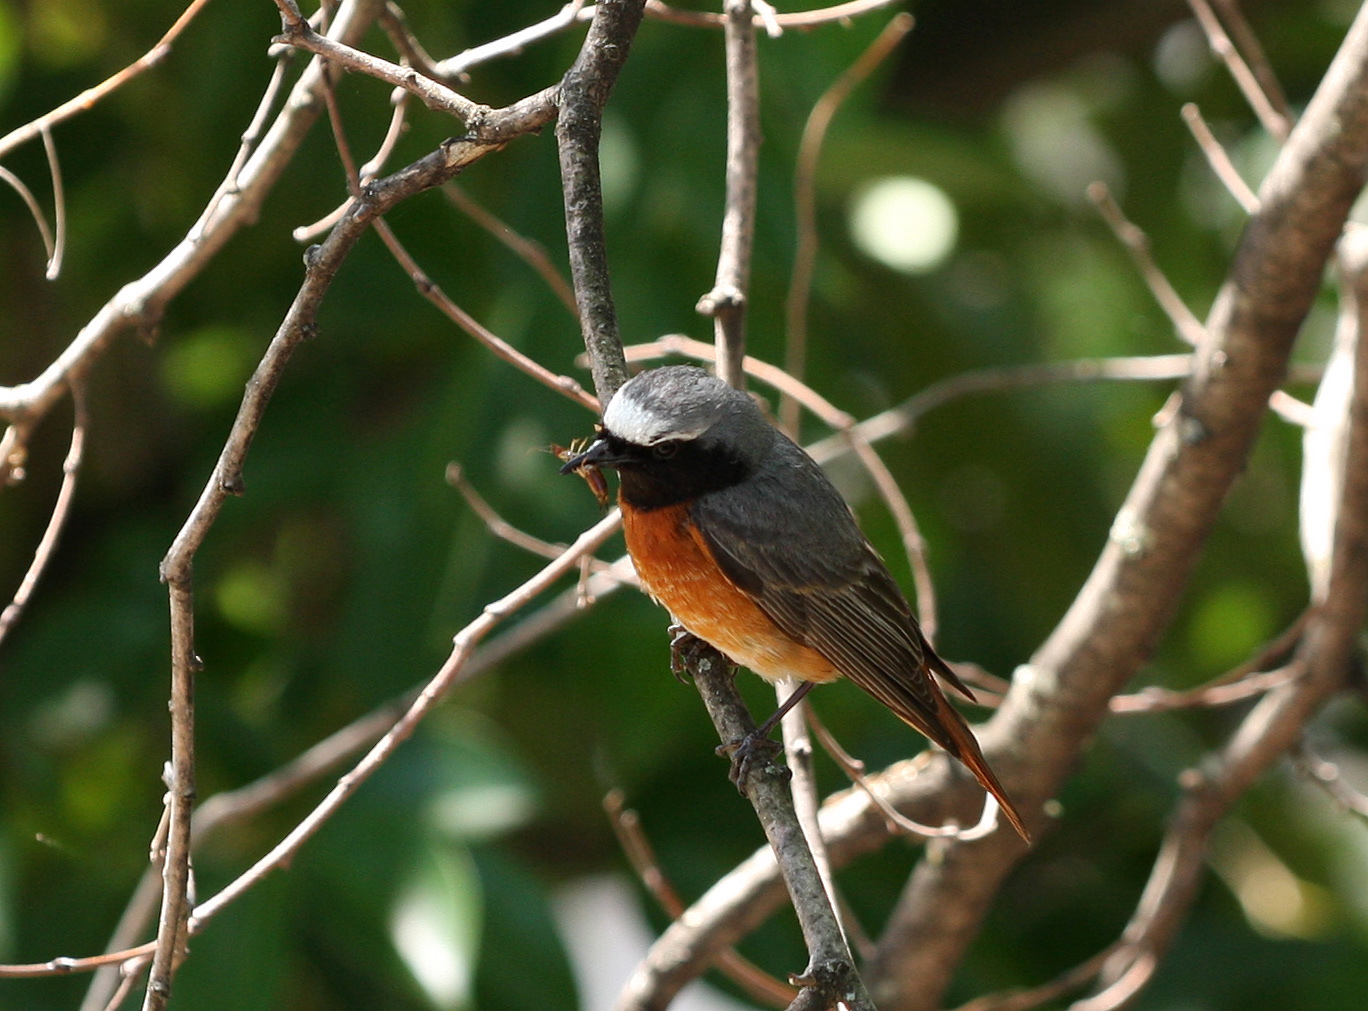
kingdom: Animalia
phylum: Chordata
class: Aves
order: Passeriformes
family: Muscicapidae
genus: Phoenicurus
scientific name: Phoenicurus phoenicurus
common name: Common redstart
